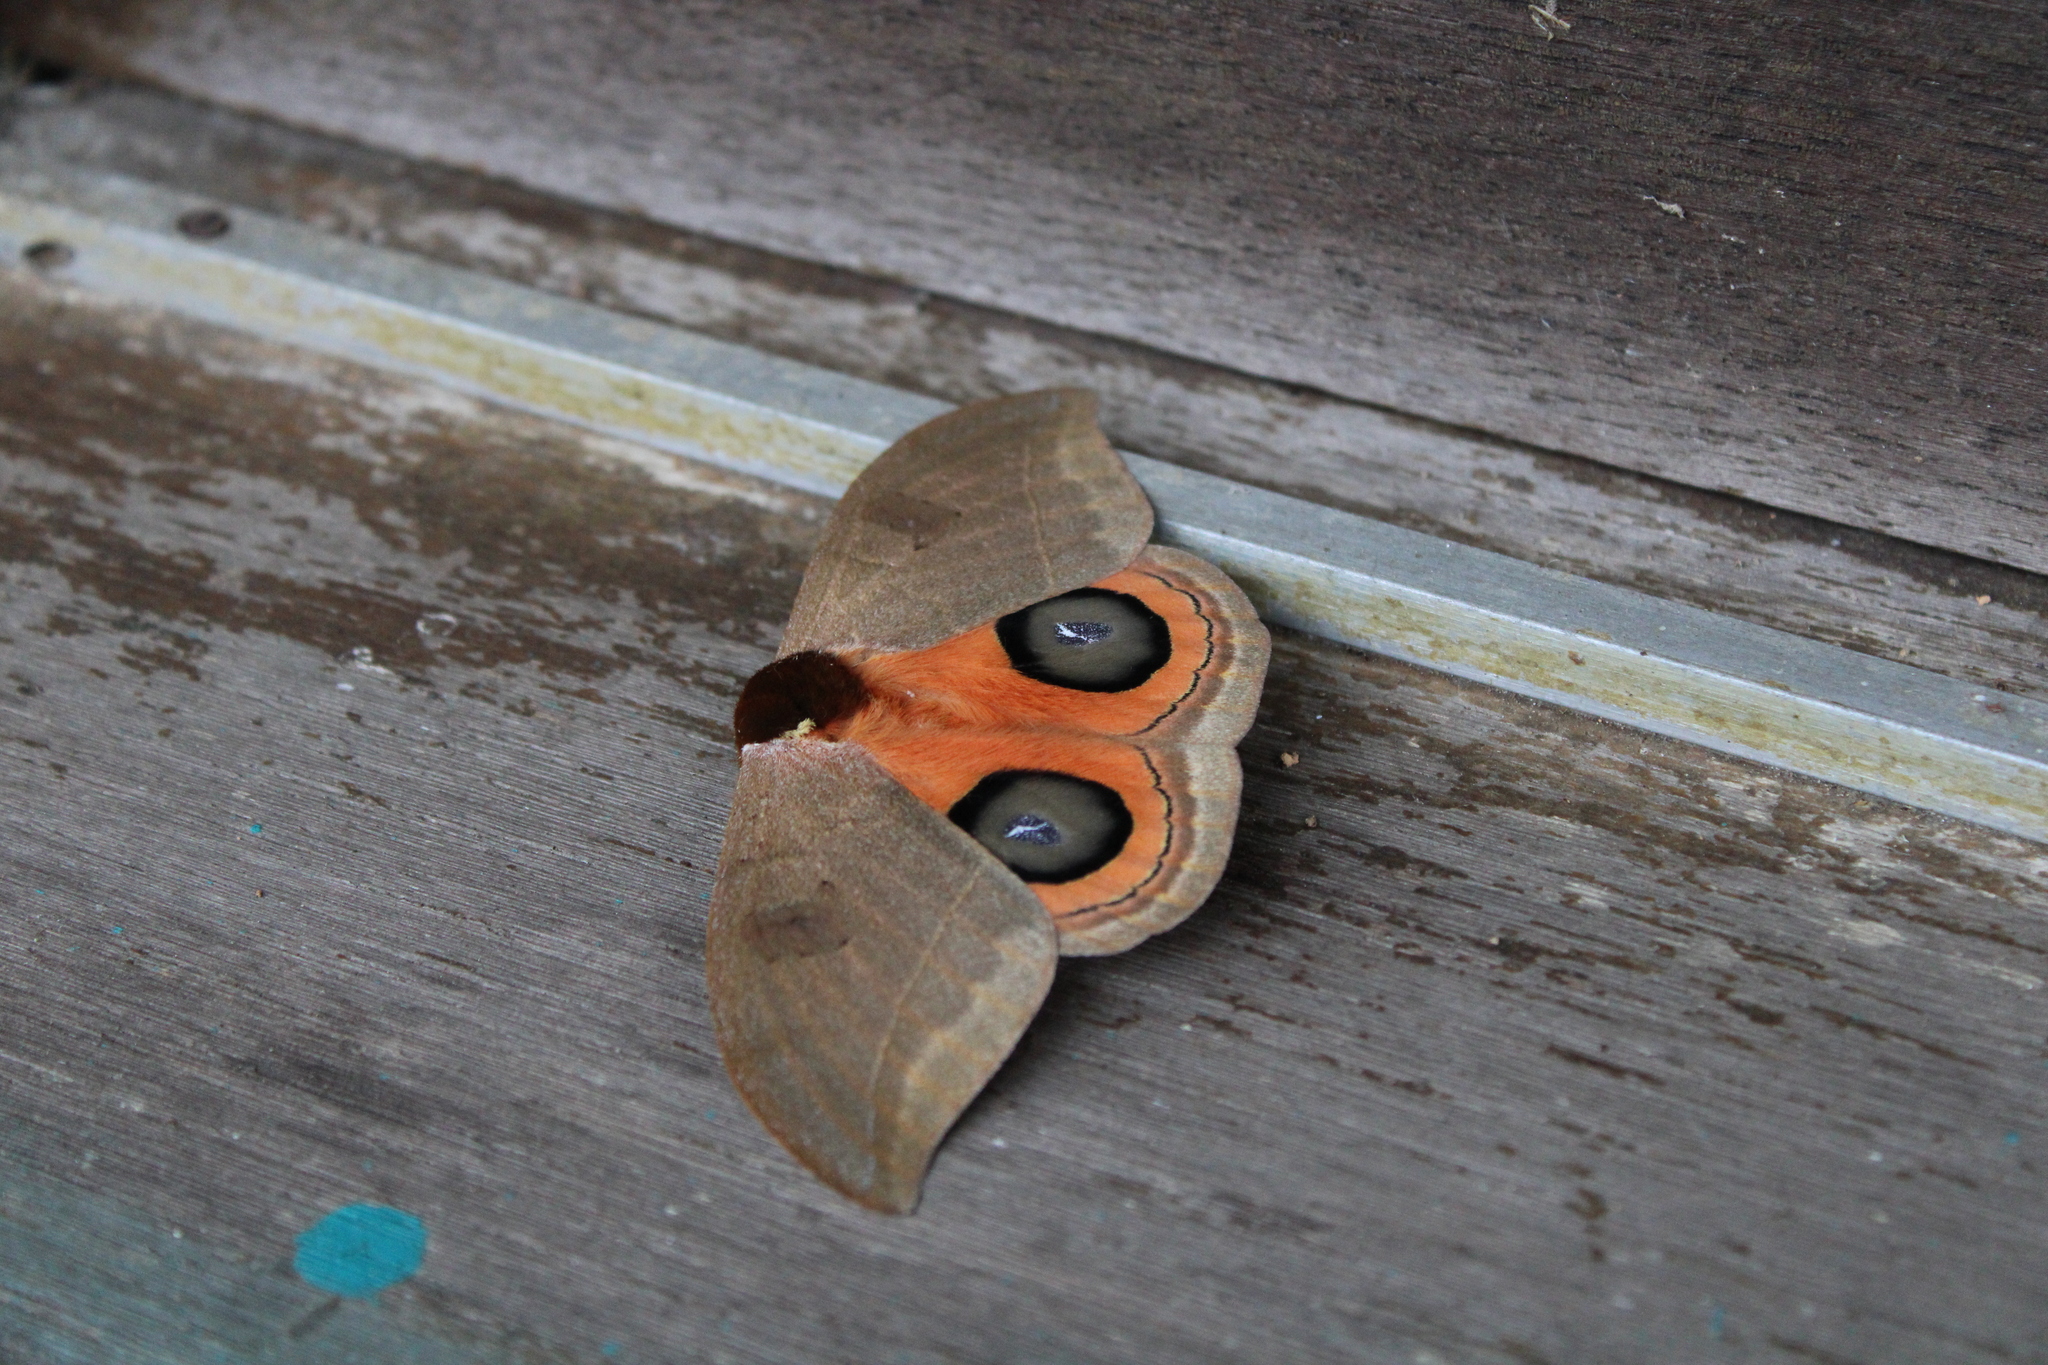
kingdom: Animalia
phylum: Arthropoda
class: Insecta
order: Lepidoptera
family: Saturniidae
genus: Automeris
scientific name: Automeris illustris
